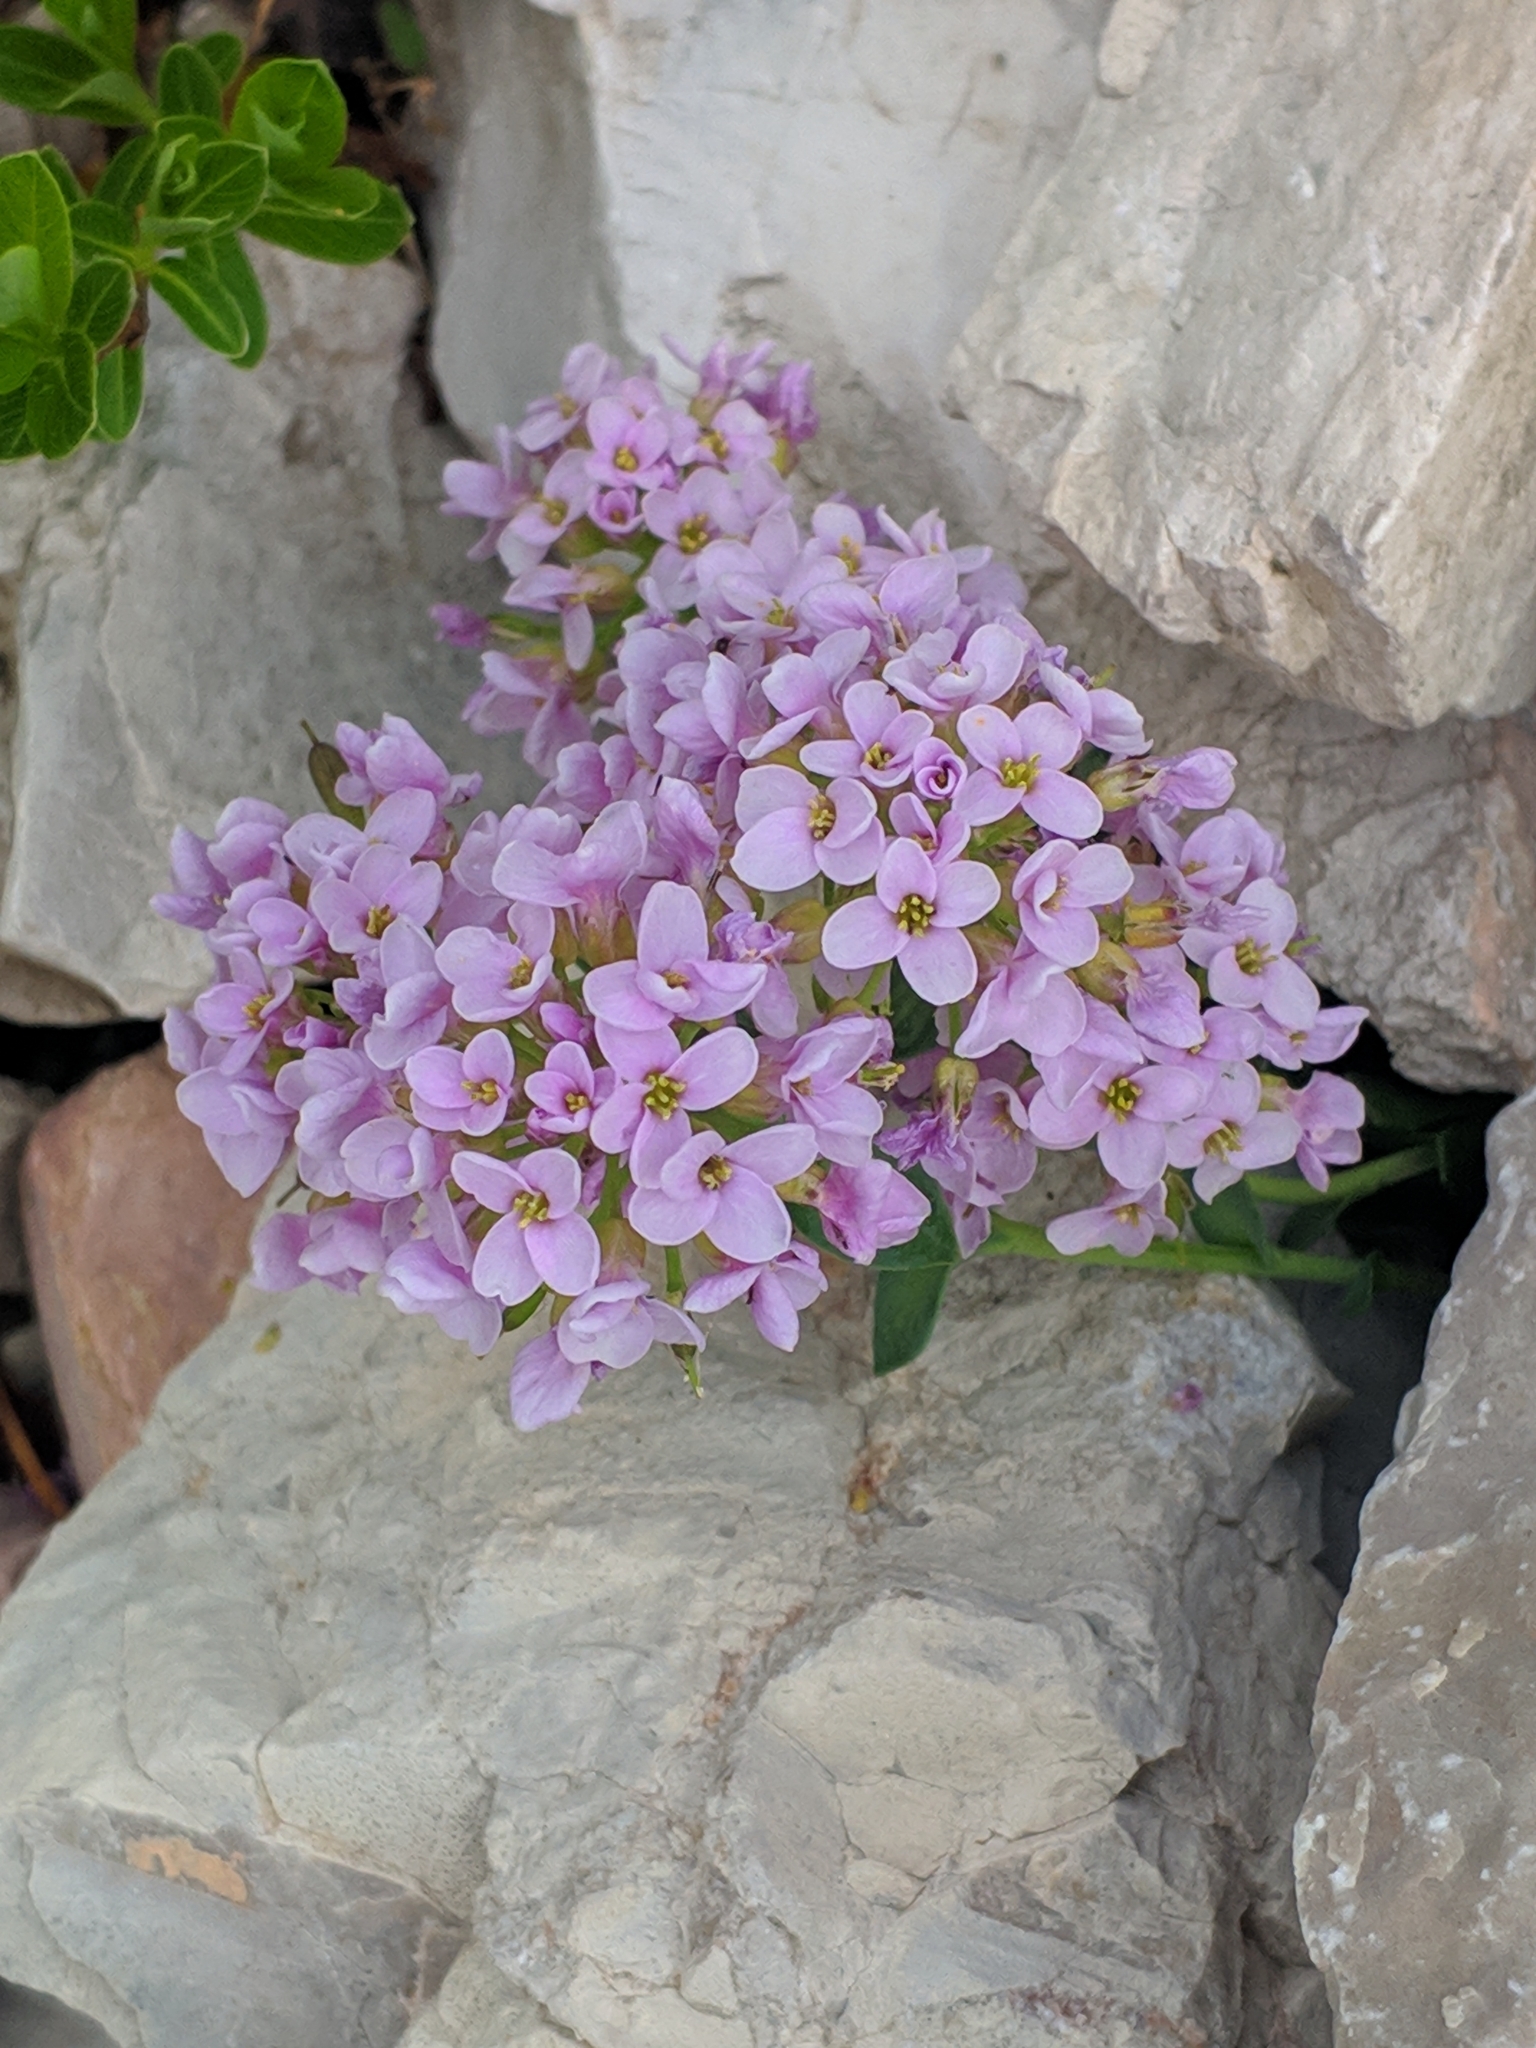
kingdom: Plantae
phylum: Tracheophyta
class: Magnoliopsida
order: Brassicales
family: Brassicaceae
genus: Noccaea
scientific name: Noccaea rotundifolia
